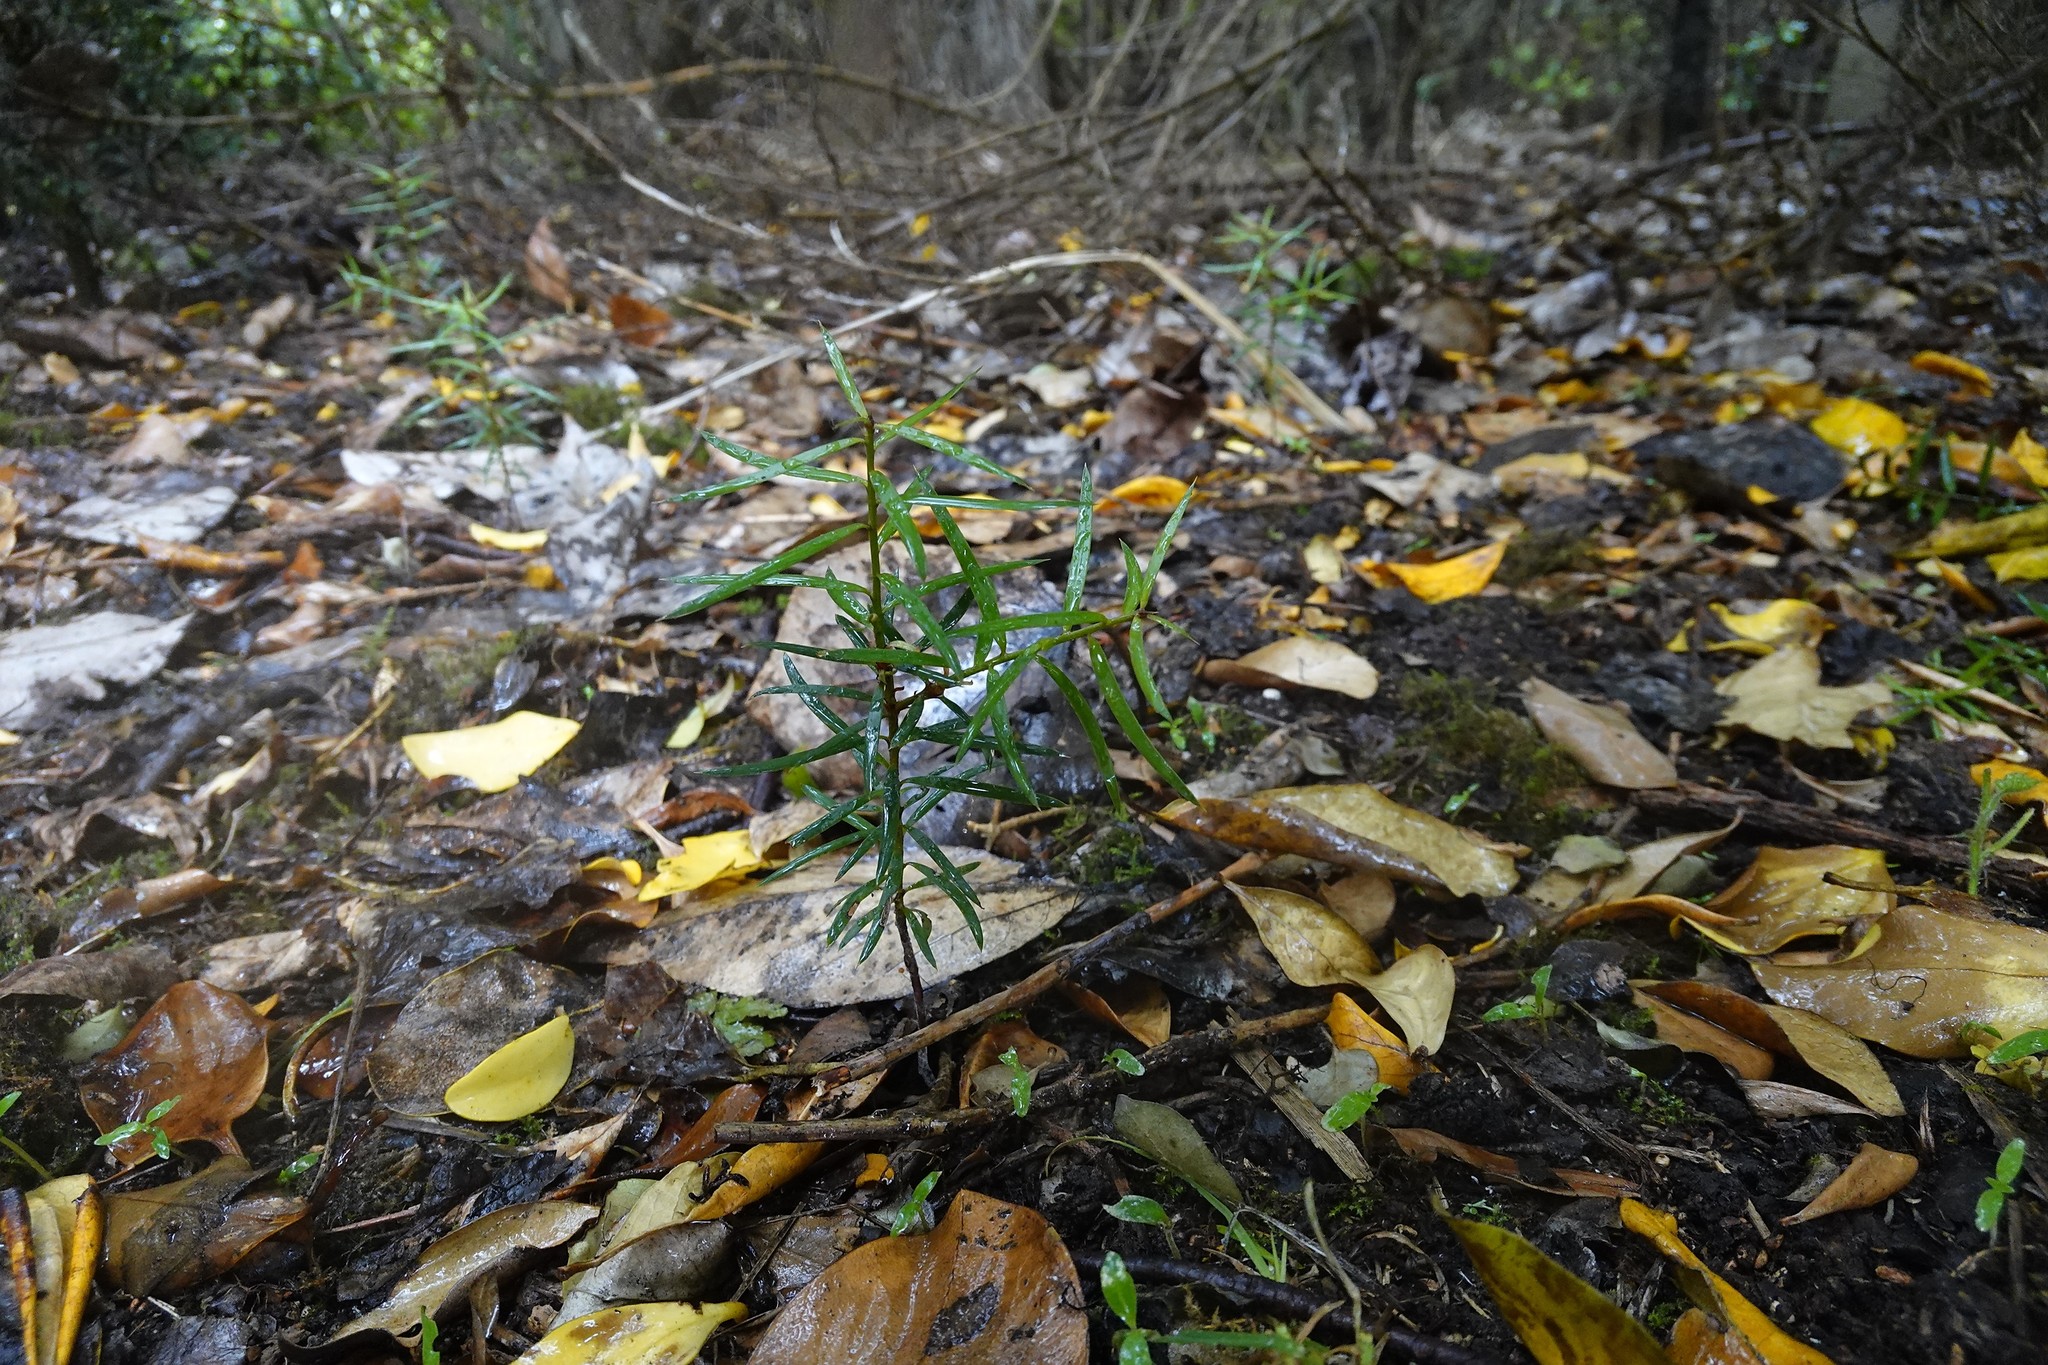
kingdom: Plantae
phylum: Tracheophyta
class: Pinopsida
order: Pinales
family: Podocarpaceae
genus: Podocarpus
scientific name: Podocarpus totara
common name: Totara
